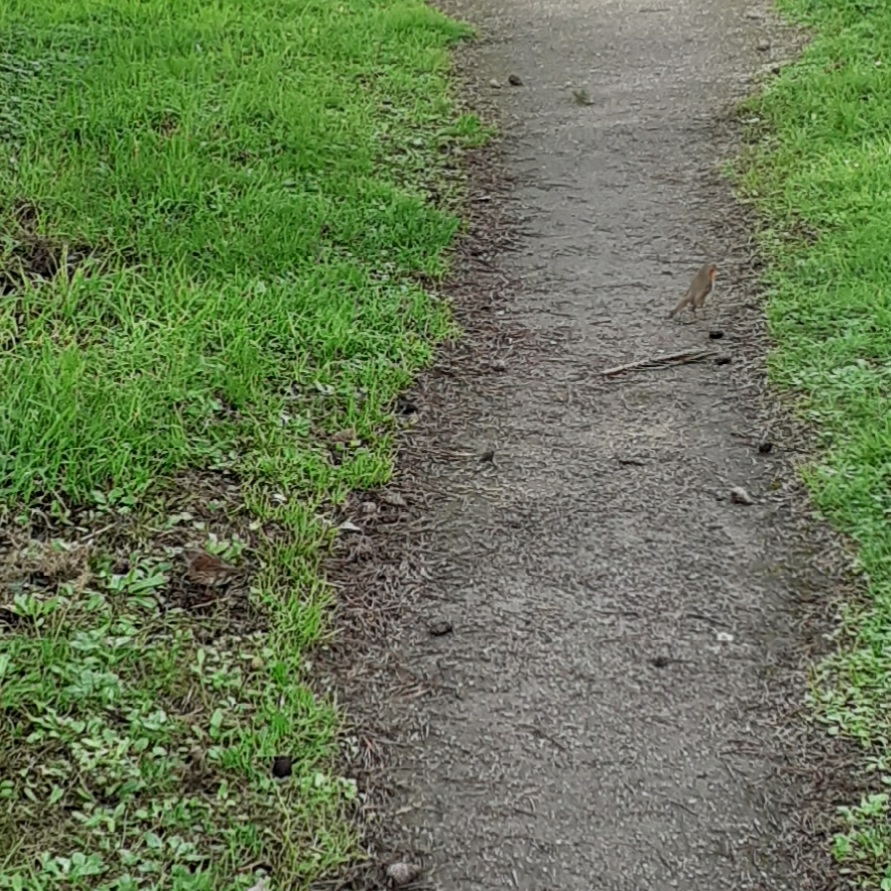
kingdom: Animalia
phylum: Chordata
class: Aves
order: Passeriformes
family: Muscicapidae
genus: Erithacus
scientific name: Erithacus rubecula
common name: European robin
